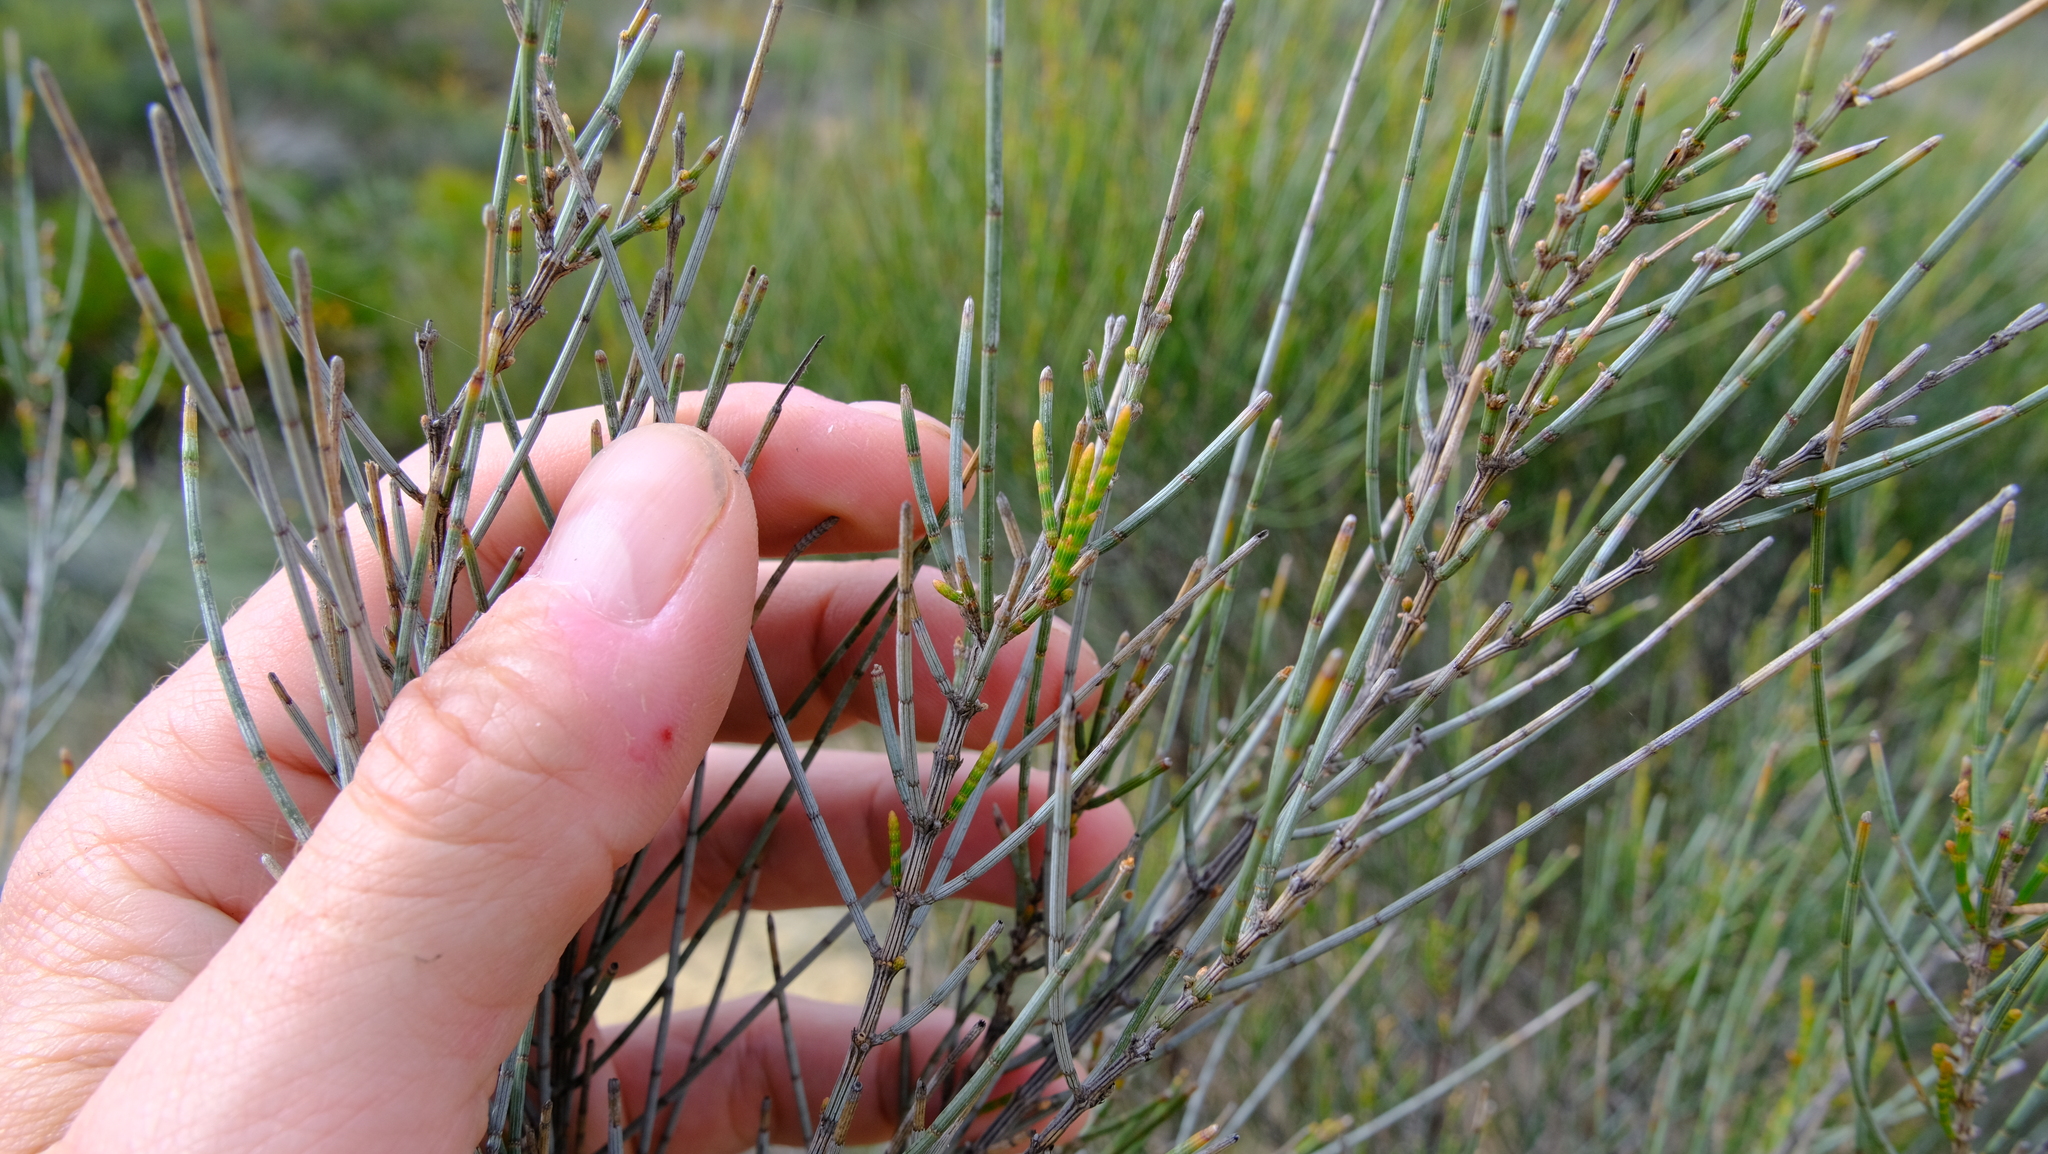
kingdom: Plantae
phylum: Tracheophyta
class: Magnoliopsida
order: Fagales
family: Casuarinaceae
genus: Allocasuarina
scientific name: Allocasuarina campestris
